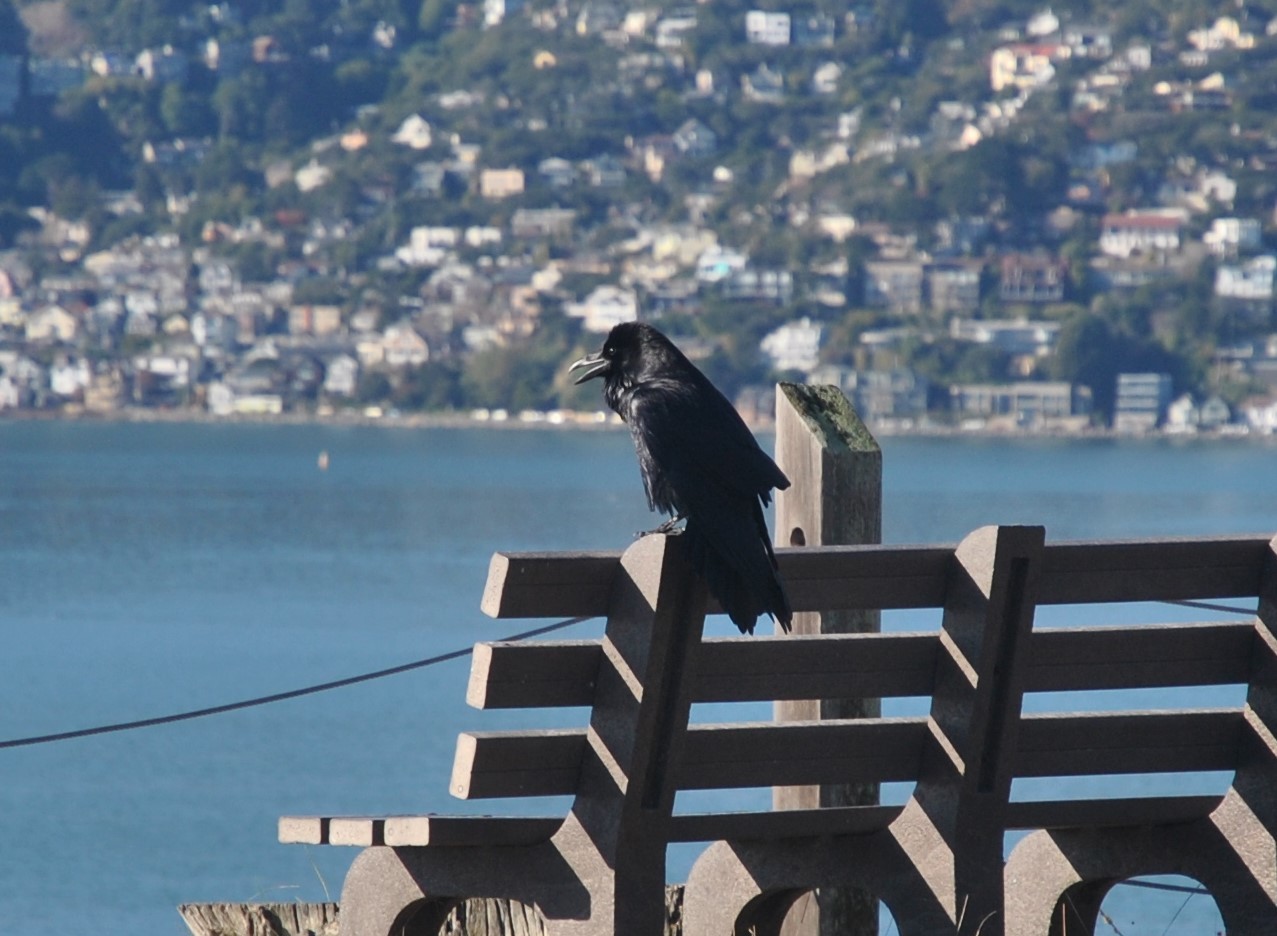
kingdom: Animalia
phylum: Chordata
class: Aves
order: Passeriformes
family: Corvidae
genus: Corvus
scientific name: Corvus corax
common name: Common raven
